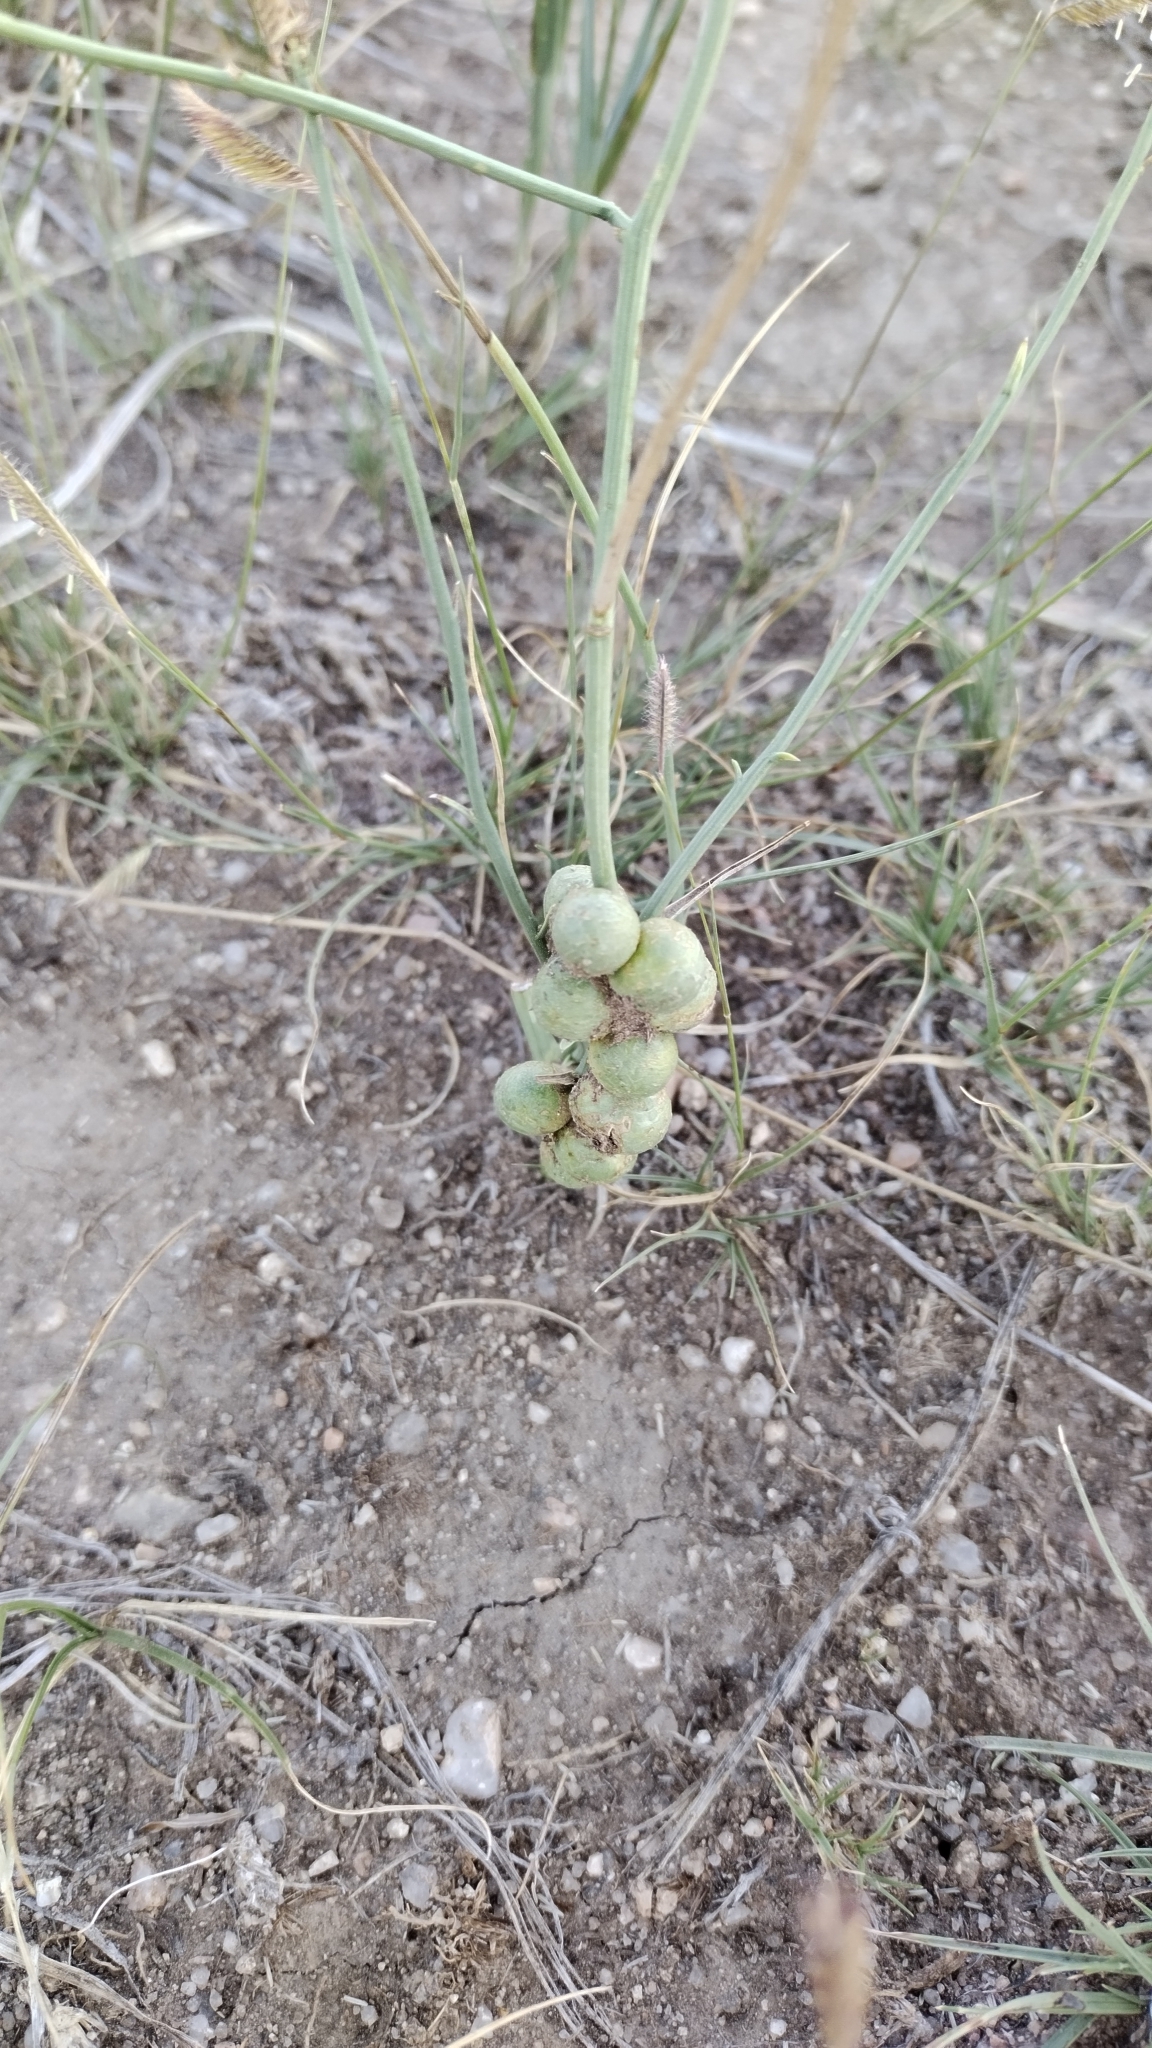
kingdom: Plantae
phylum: Tracheophyta
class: Magnoliopsida
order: Asterales
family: Asteraceae
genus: Lygodesmia
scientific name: Lygodesmia juncea
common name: Common skeletonweed
